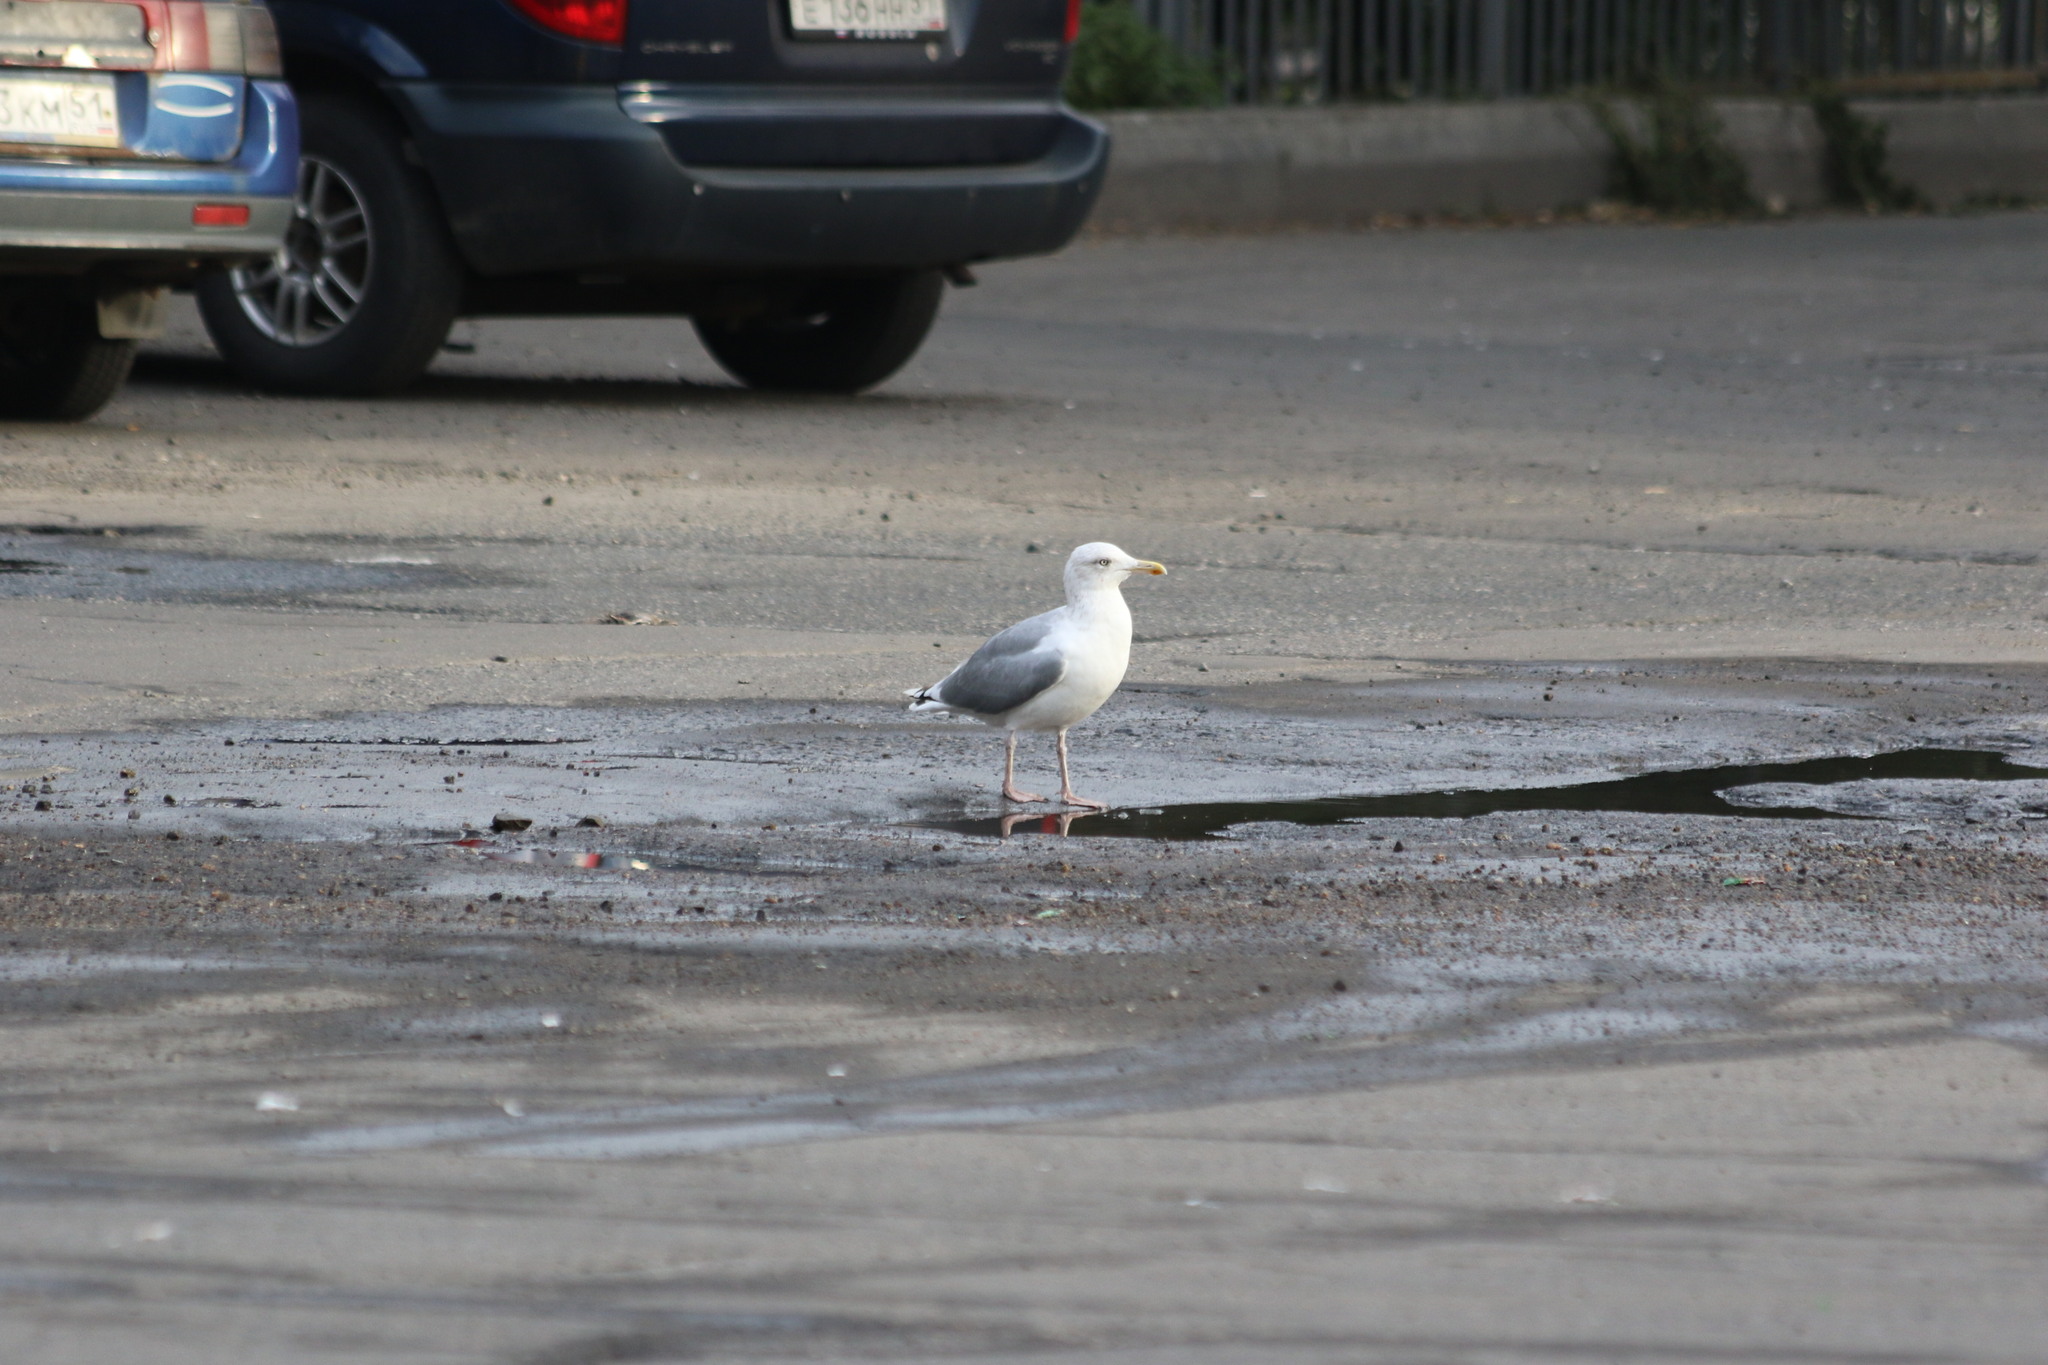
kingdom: Animalia
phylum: Chordata
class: Aves
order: Charadriiformes
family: Laridae
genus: Larus
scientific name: Larus argentatus
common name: Herring gull
